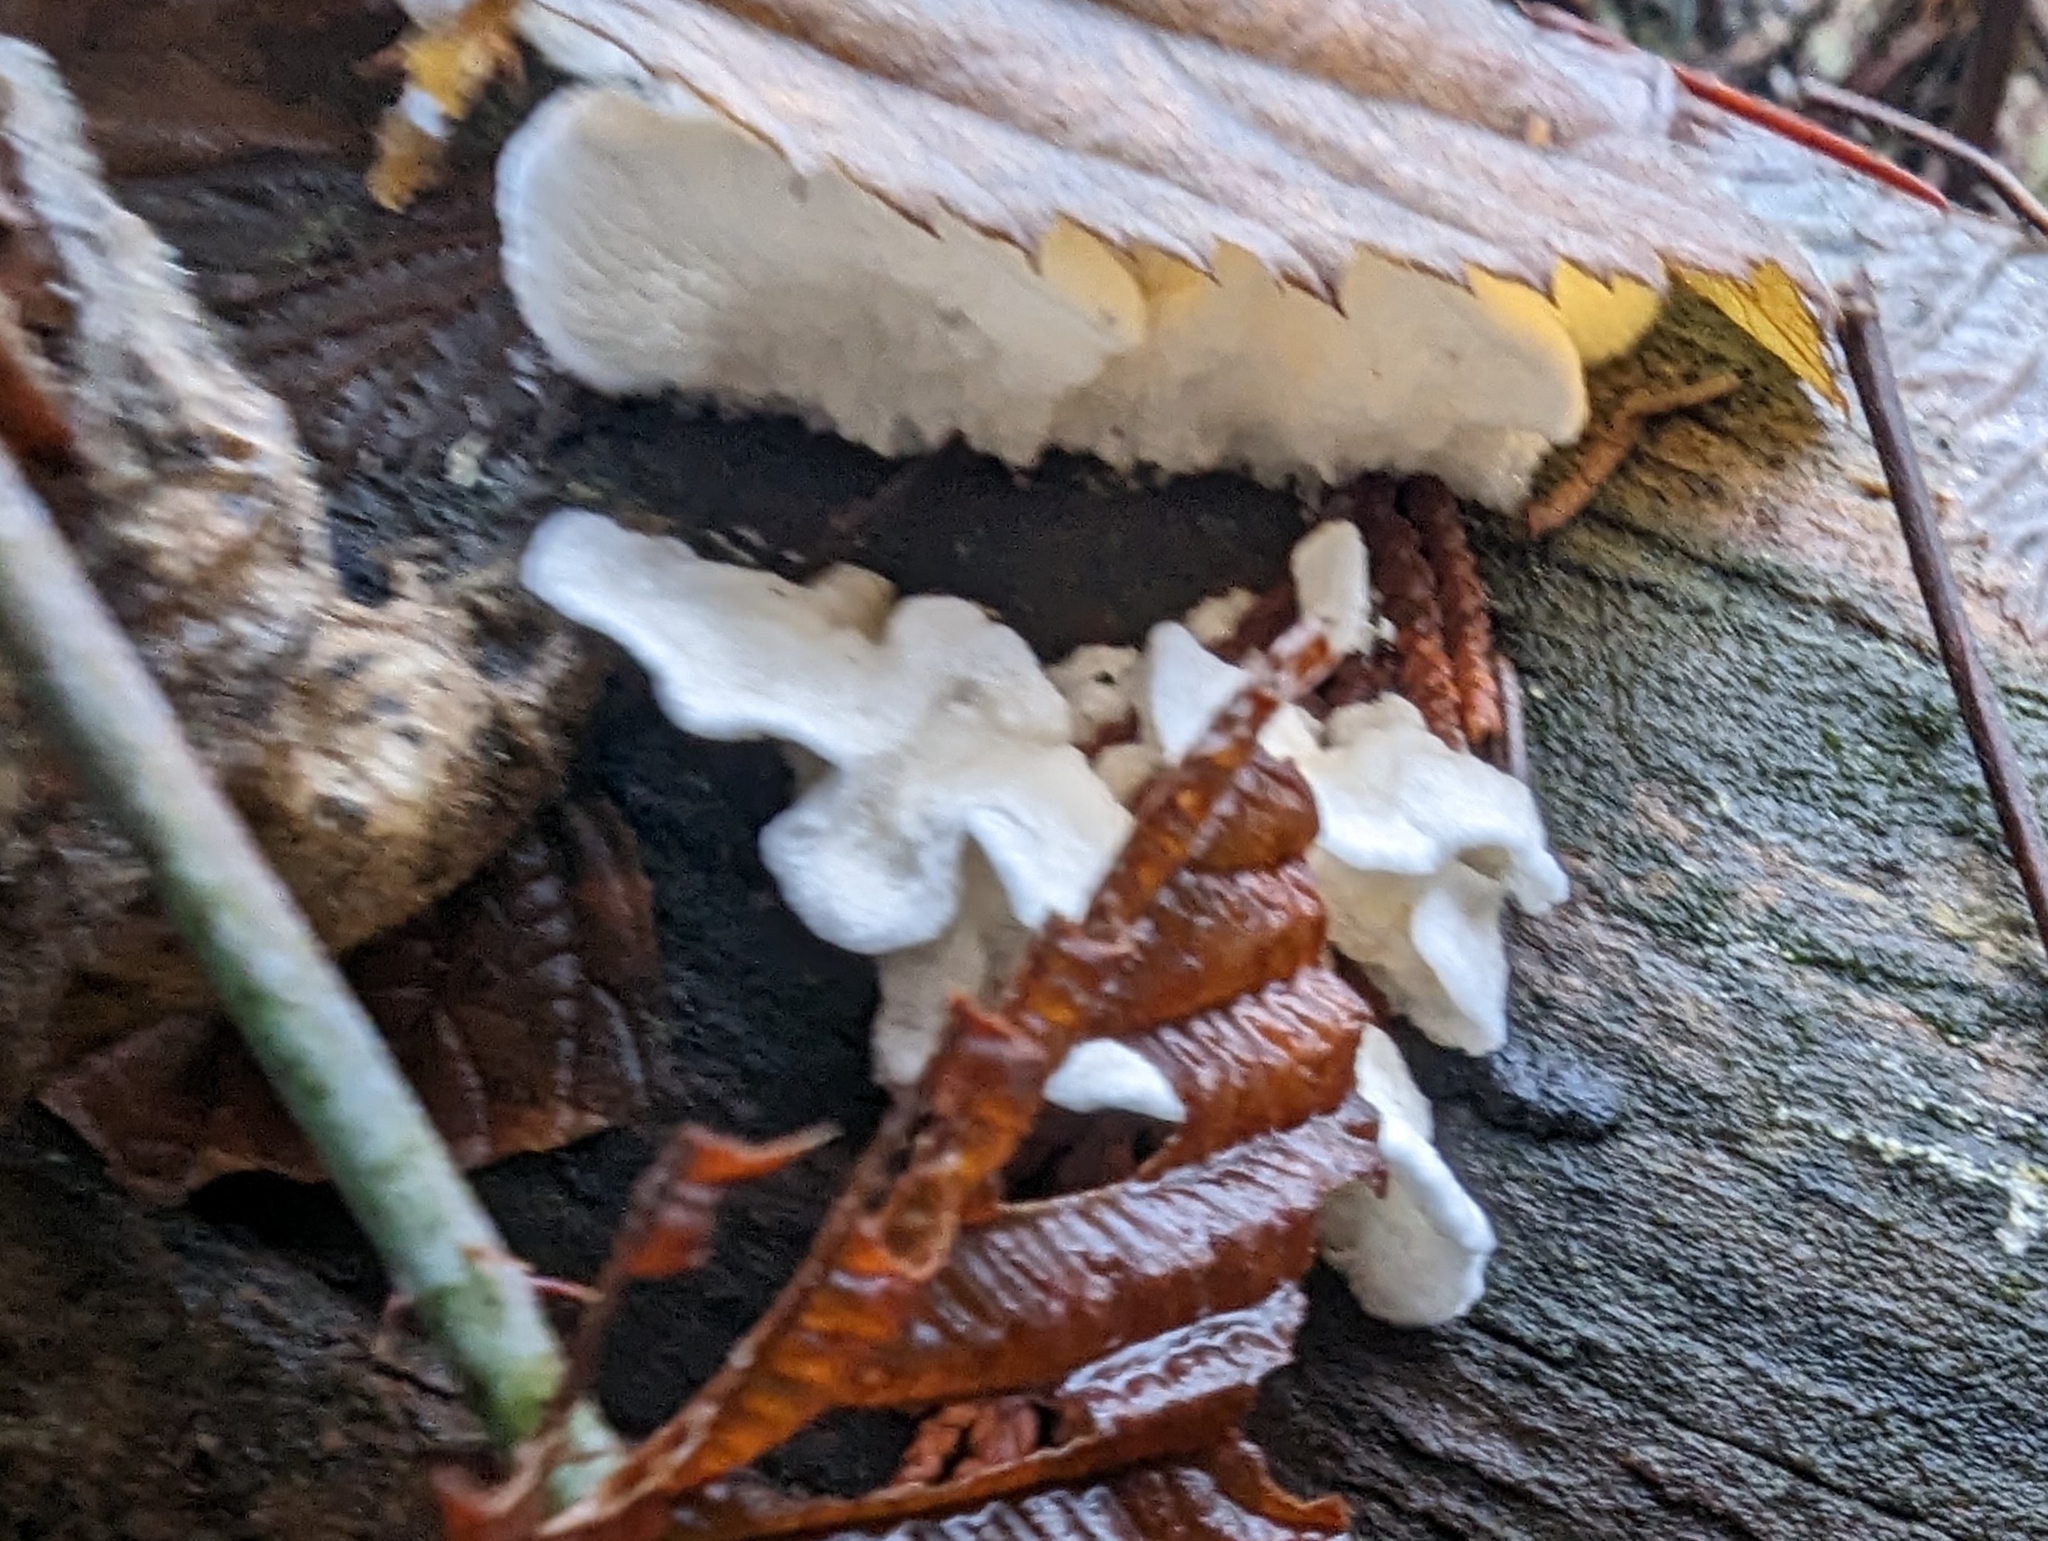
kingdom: Fungi
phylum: Basidiomycota
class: Agaricomycetes
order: Agaricales
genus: Plicatura
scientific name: Plicatura nivea
